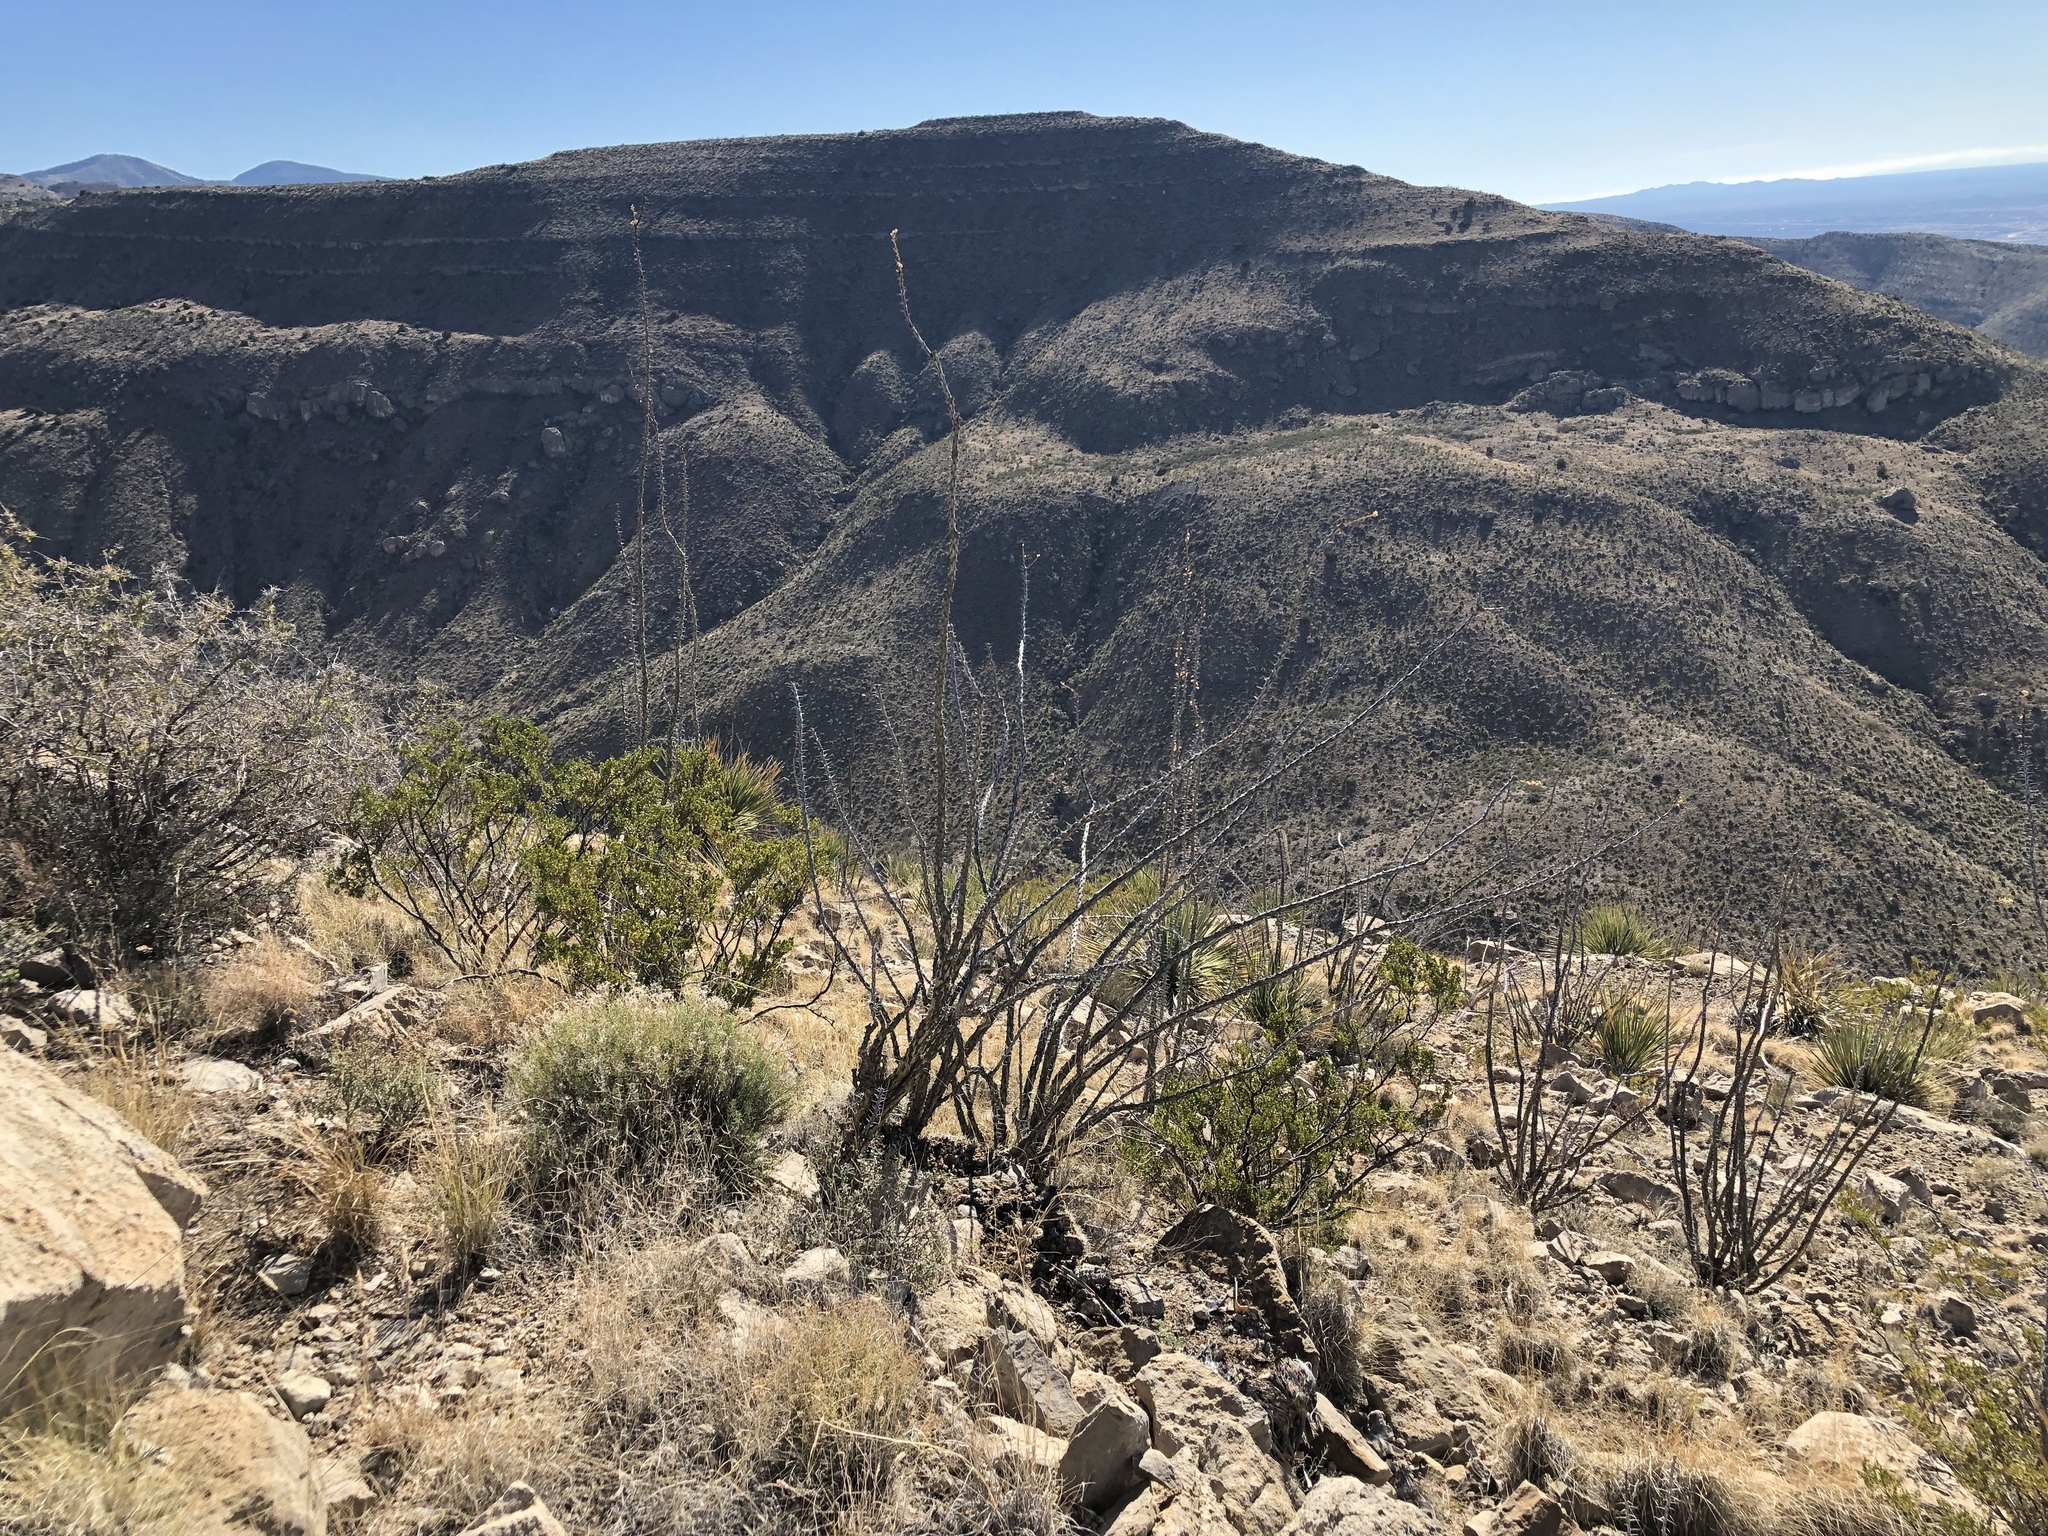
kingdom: Plantae
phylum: Tracheophyta
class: Magnoliopsida
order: Ericales
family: Fouquieriaceae
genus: Fouquieria
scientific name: Fouquieria splendens
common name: Vine-cactus
